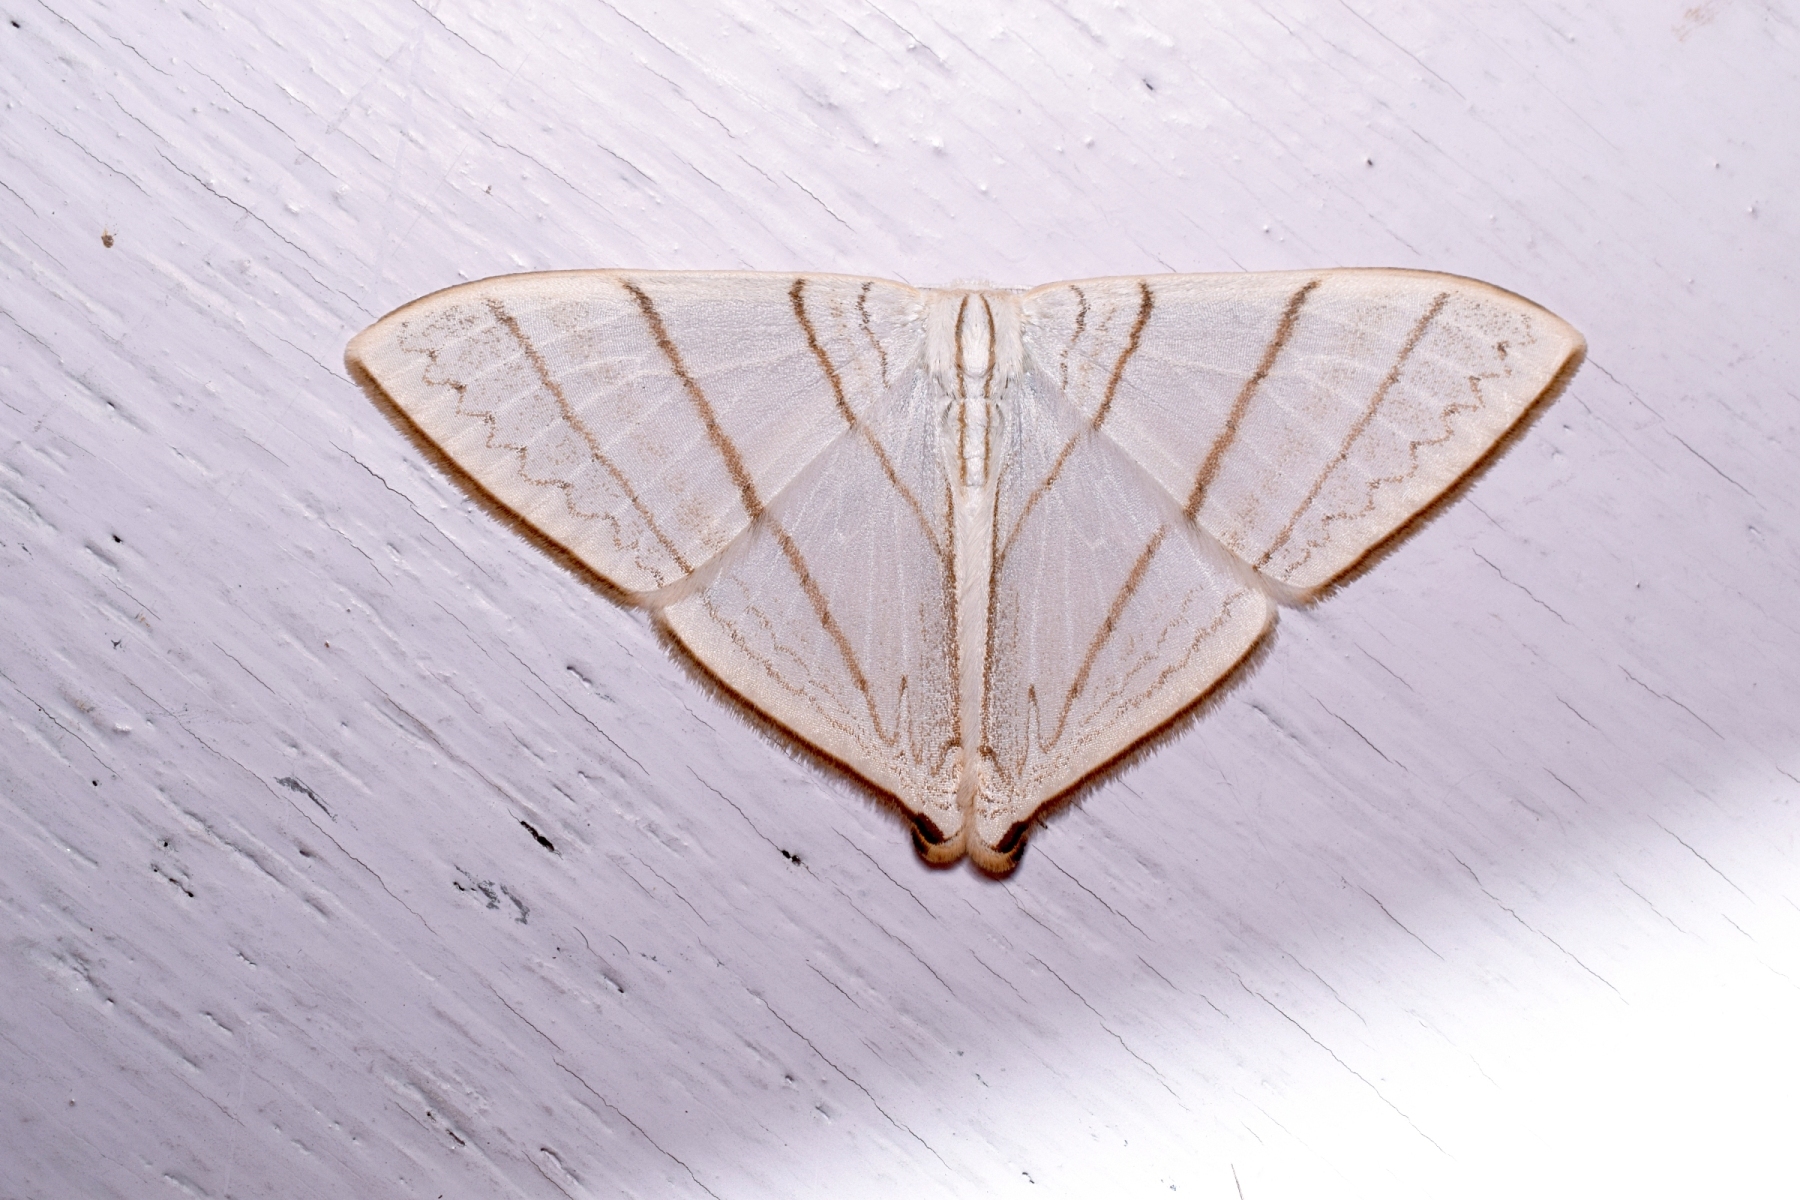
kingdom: Animalia
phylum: Arthropoda
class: Insecta
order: Lepidoptera
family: Drepanidae
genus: Ditrigona
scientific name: Ditrigona regularis
